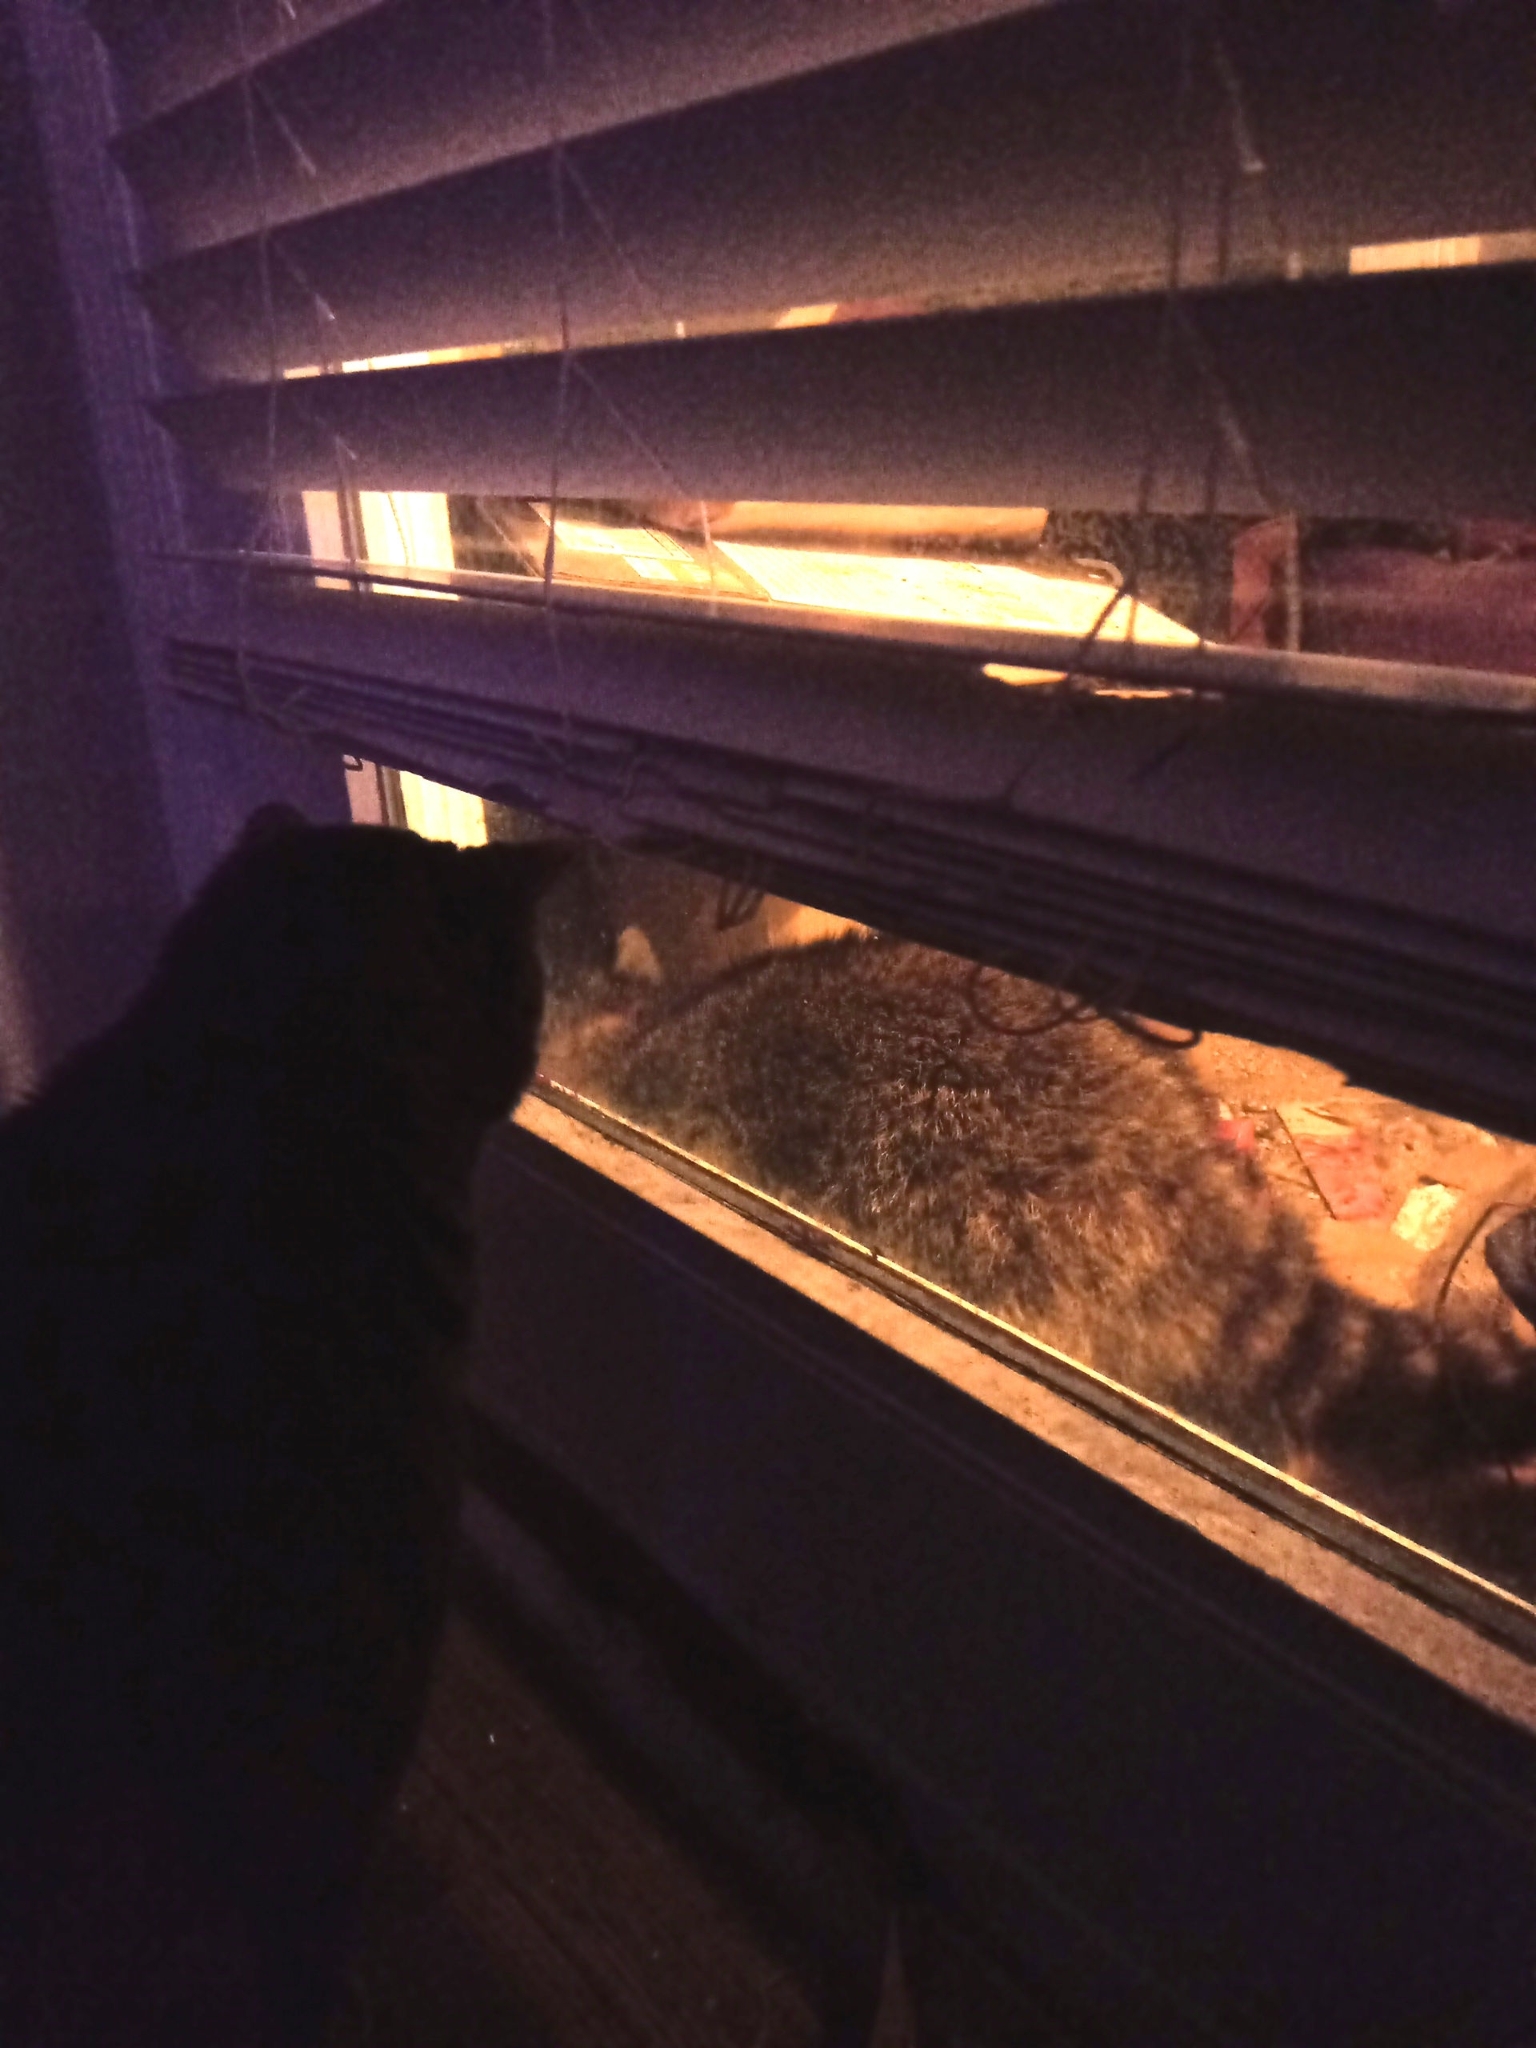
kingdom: Animalia
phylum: Chordata
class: Mammalia
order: Carnivora
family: Procyonidae
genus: Procyon
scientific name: Procyon lotor
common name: Raccoon
